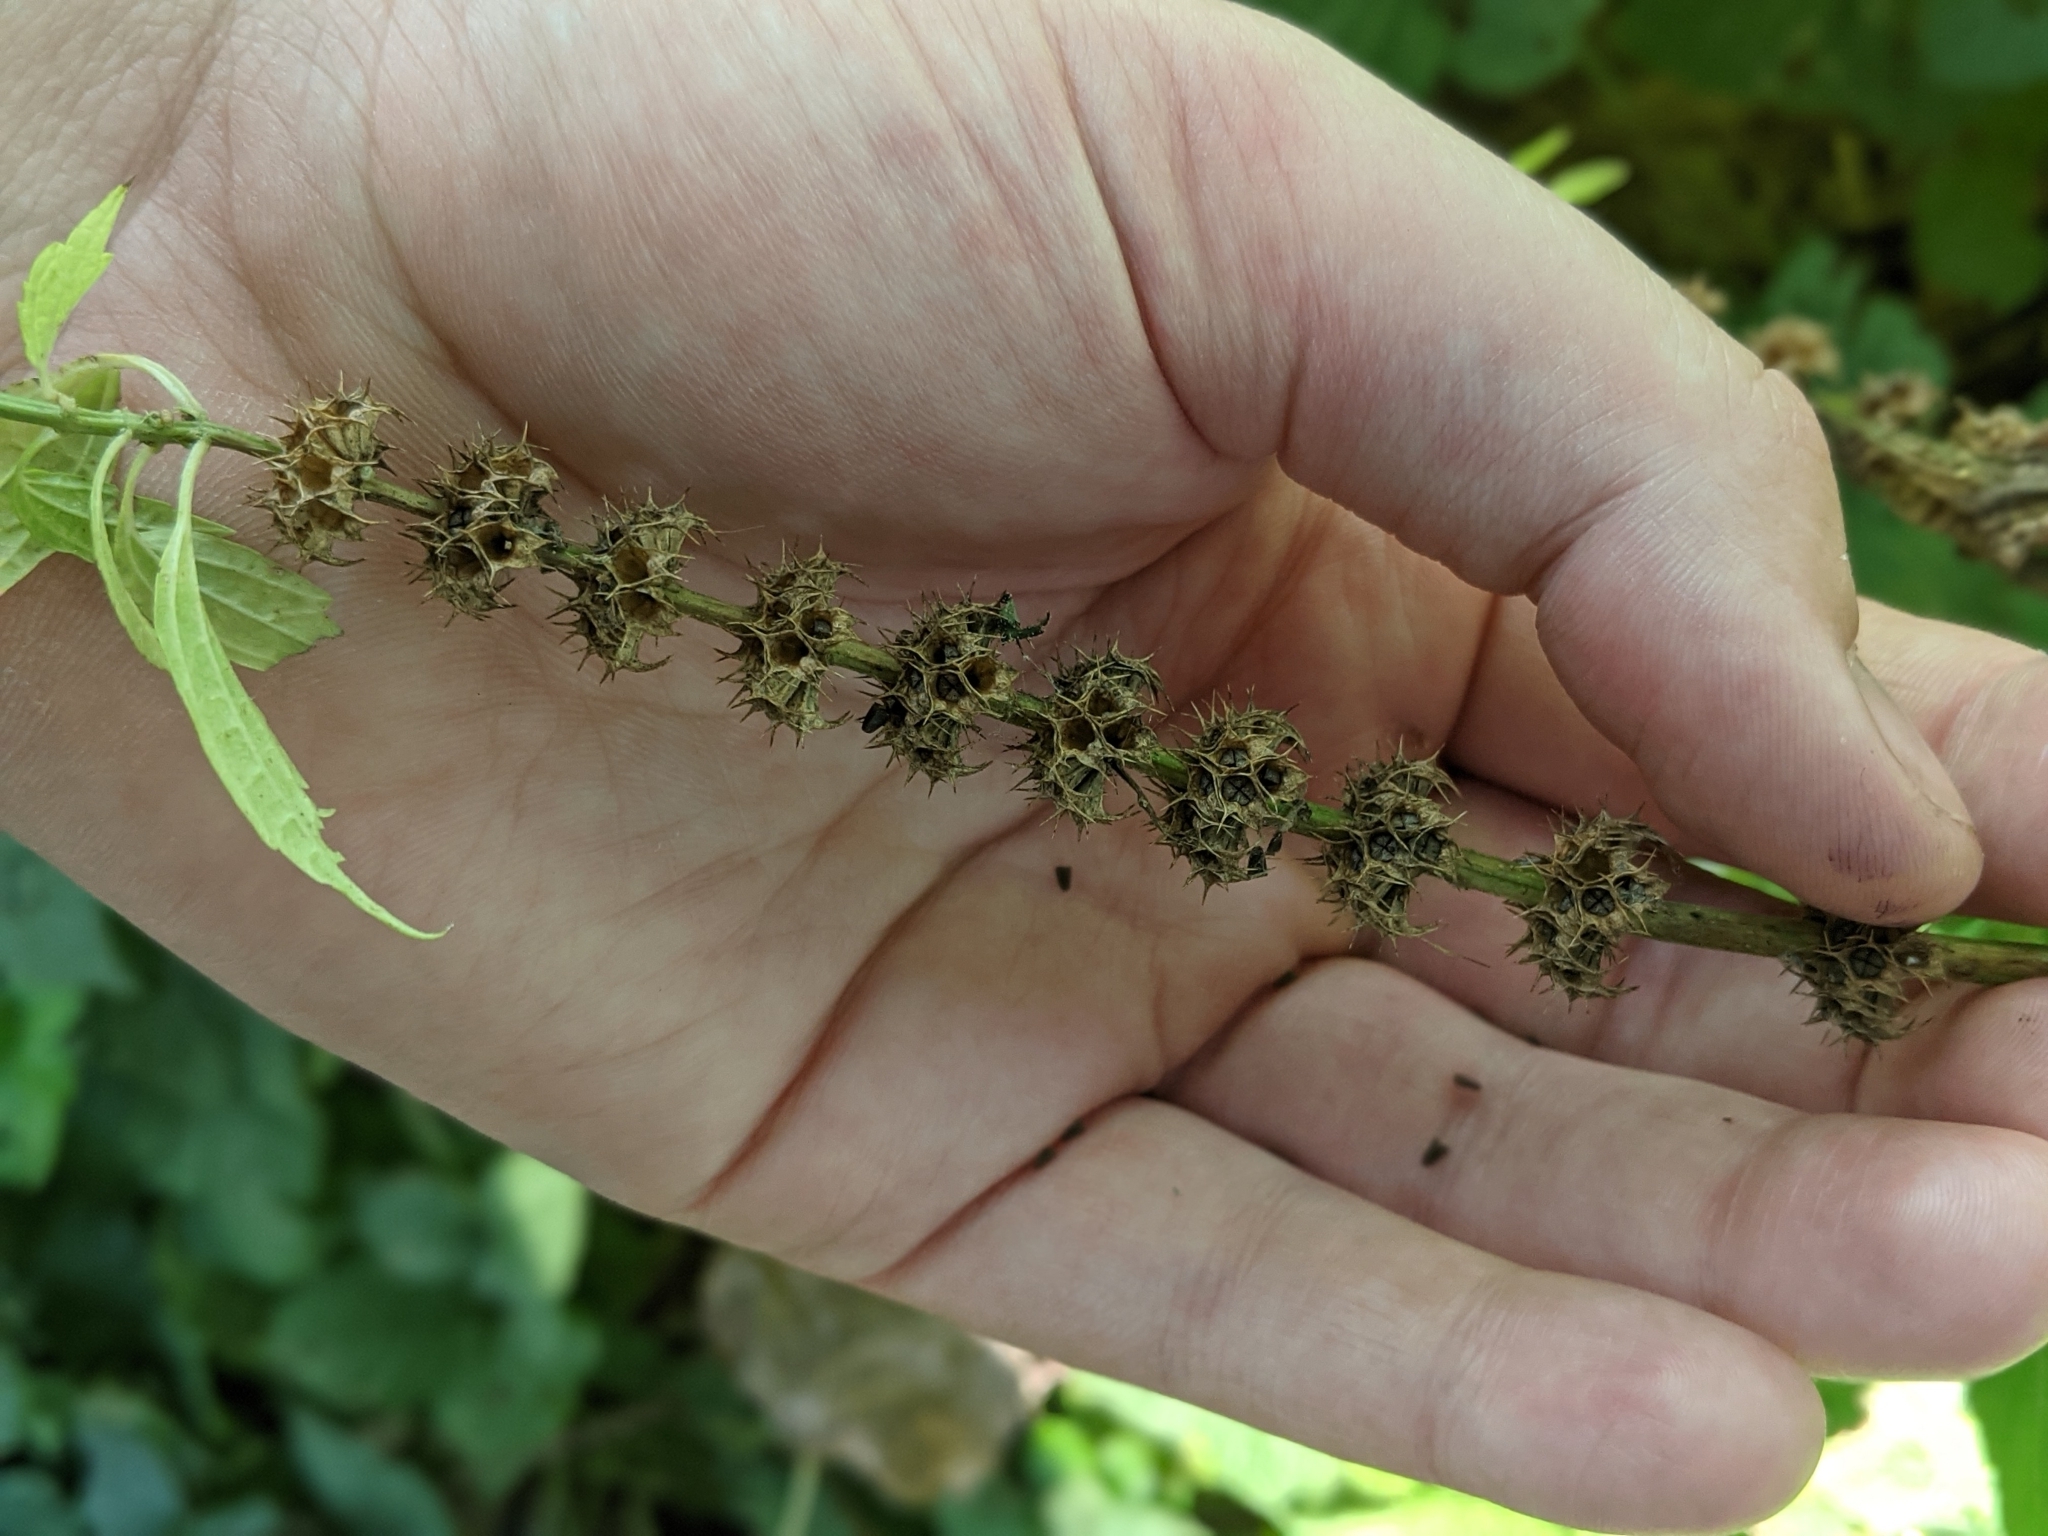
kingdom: Plantae
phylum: Tracheophyta
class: Magnoliopsida
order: Lamiales
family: Lamiaceae
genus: Leonurus
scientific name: Leonurus cardiaca
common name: Motherwort
